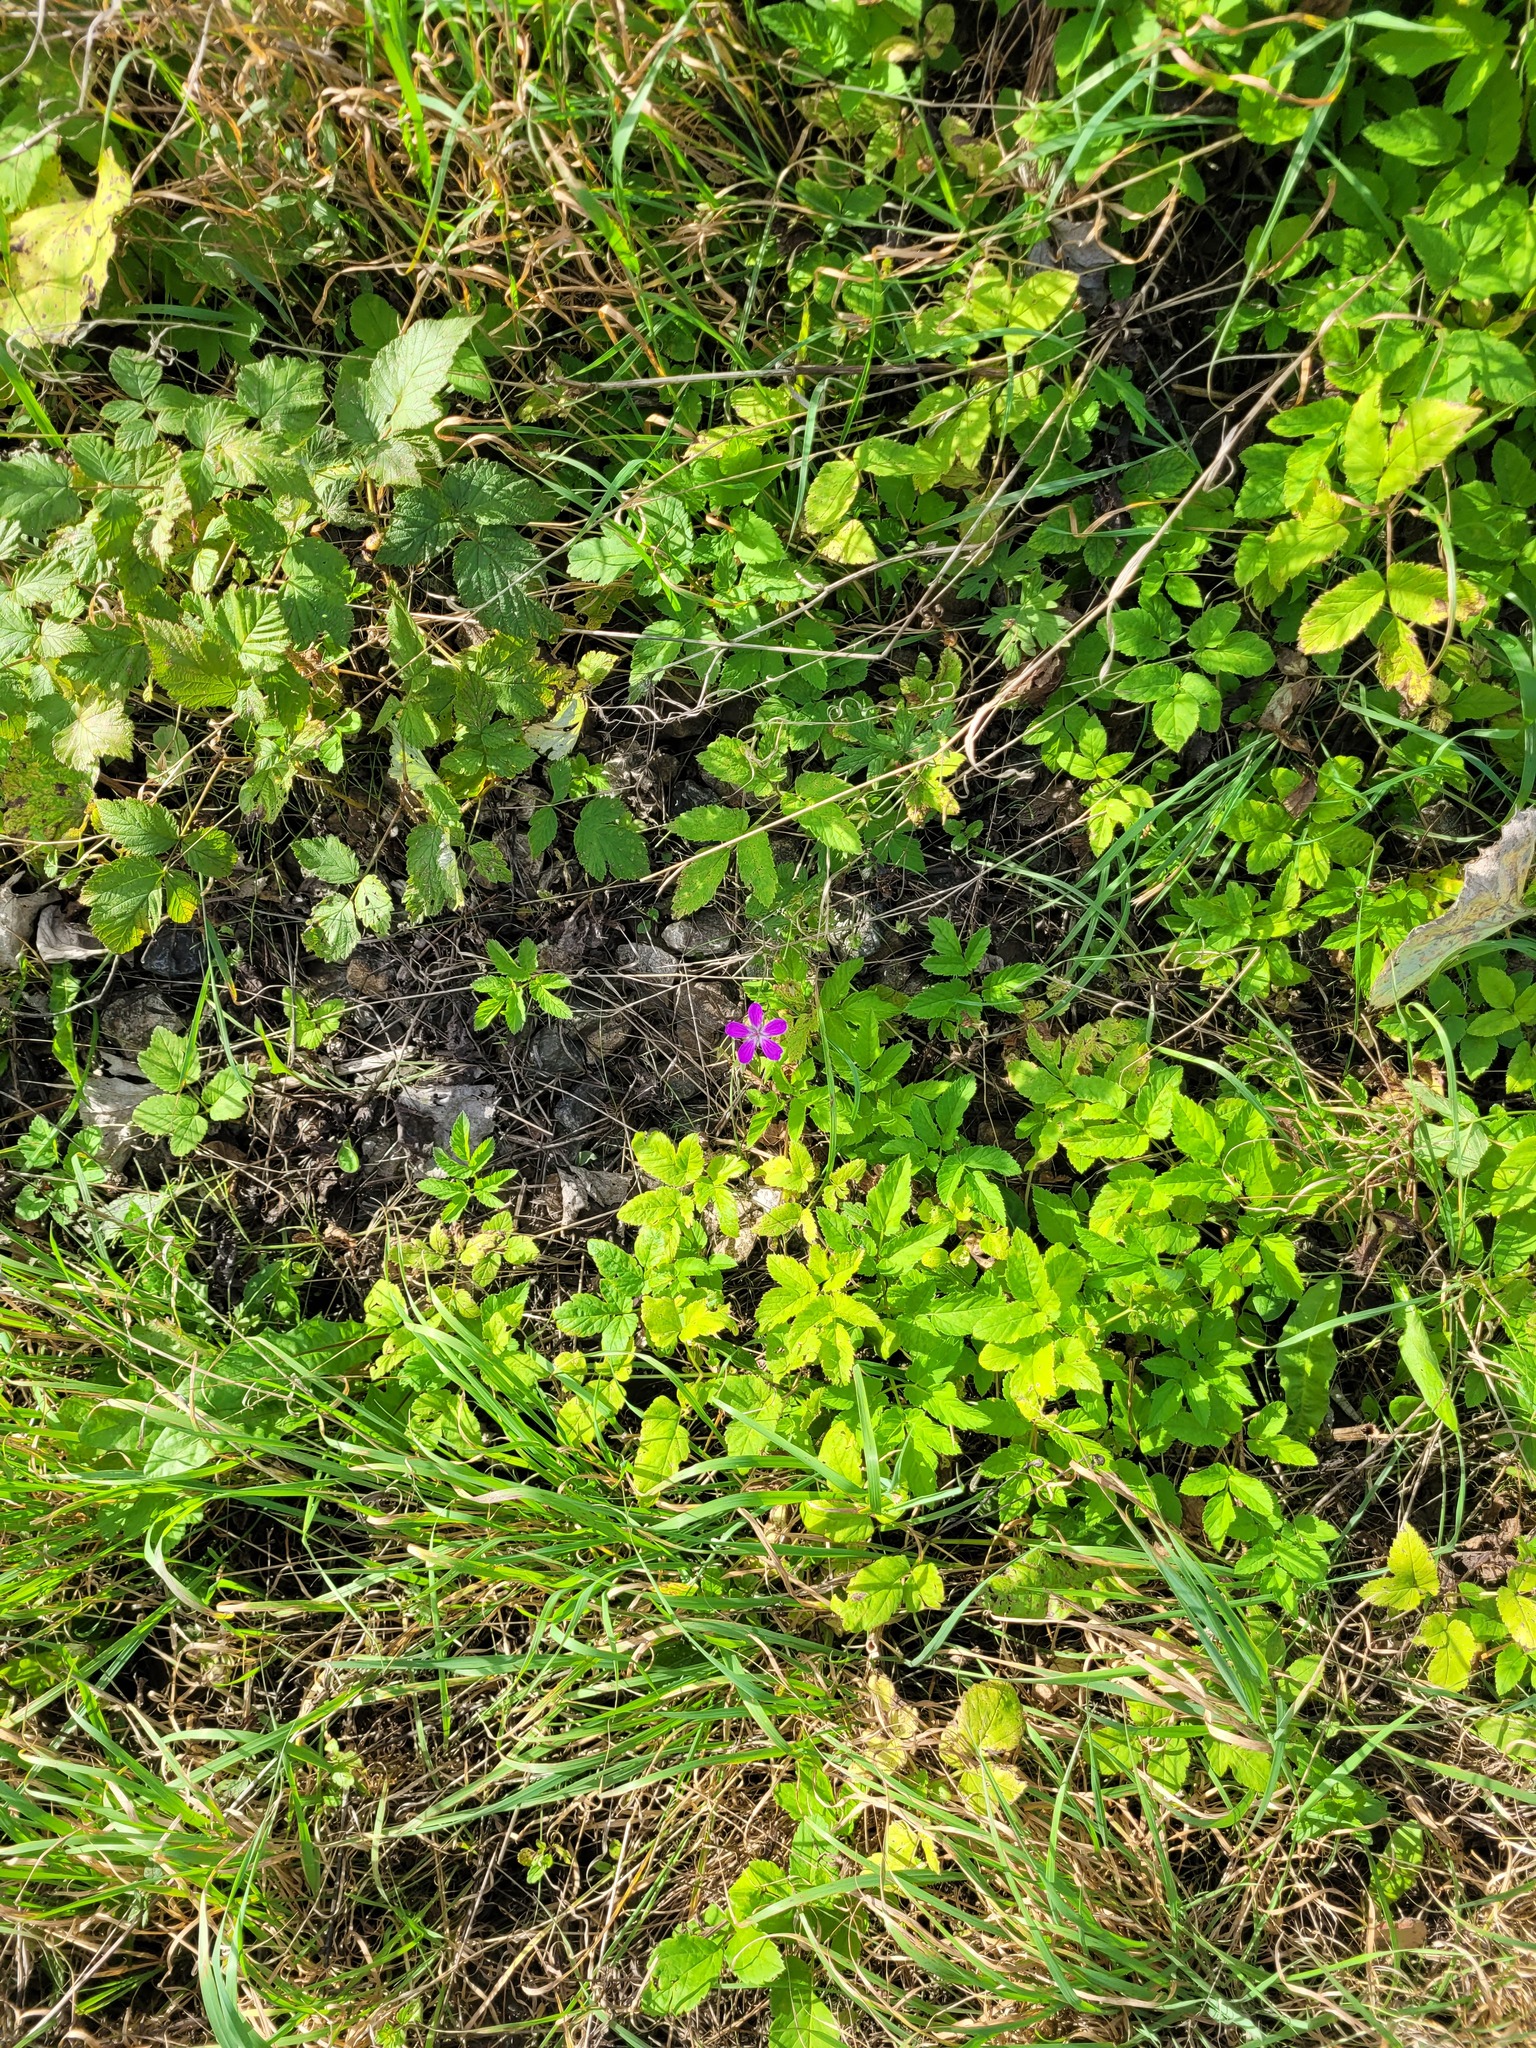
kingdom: Plantae
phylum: Tracheophyta
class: Magnoliopsida
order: Geraniales
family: Geraniaceae
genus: Geranium
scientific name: Geranium palustre
